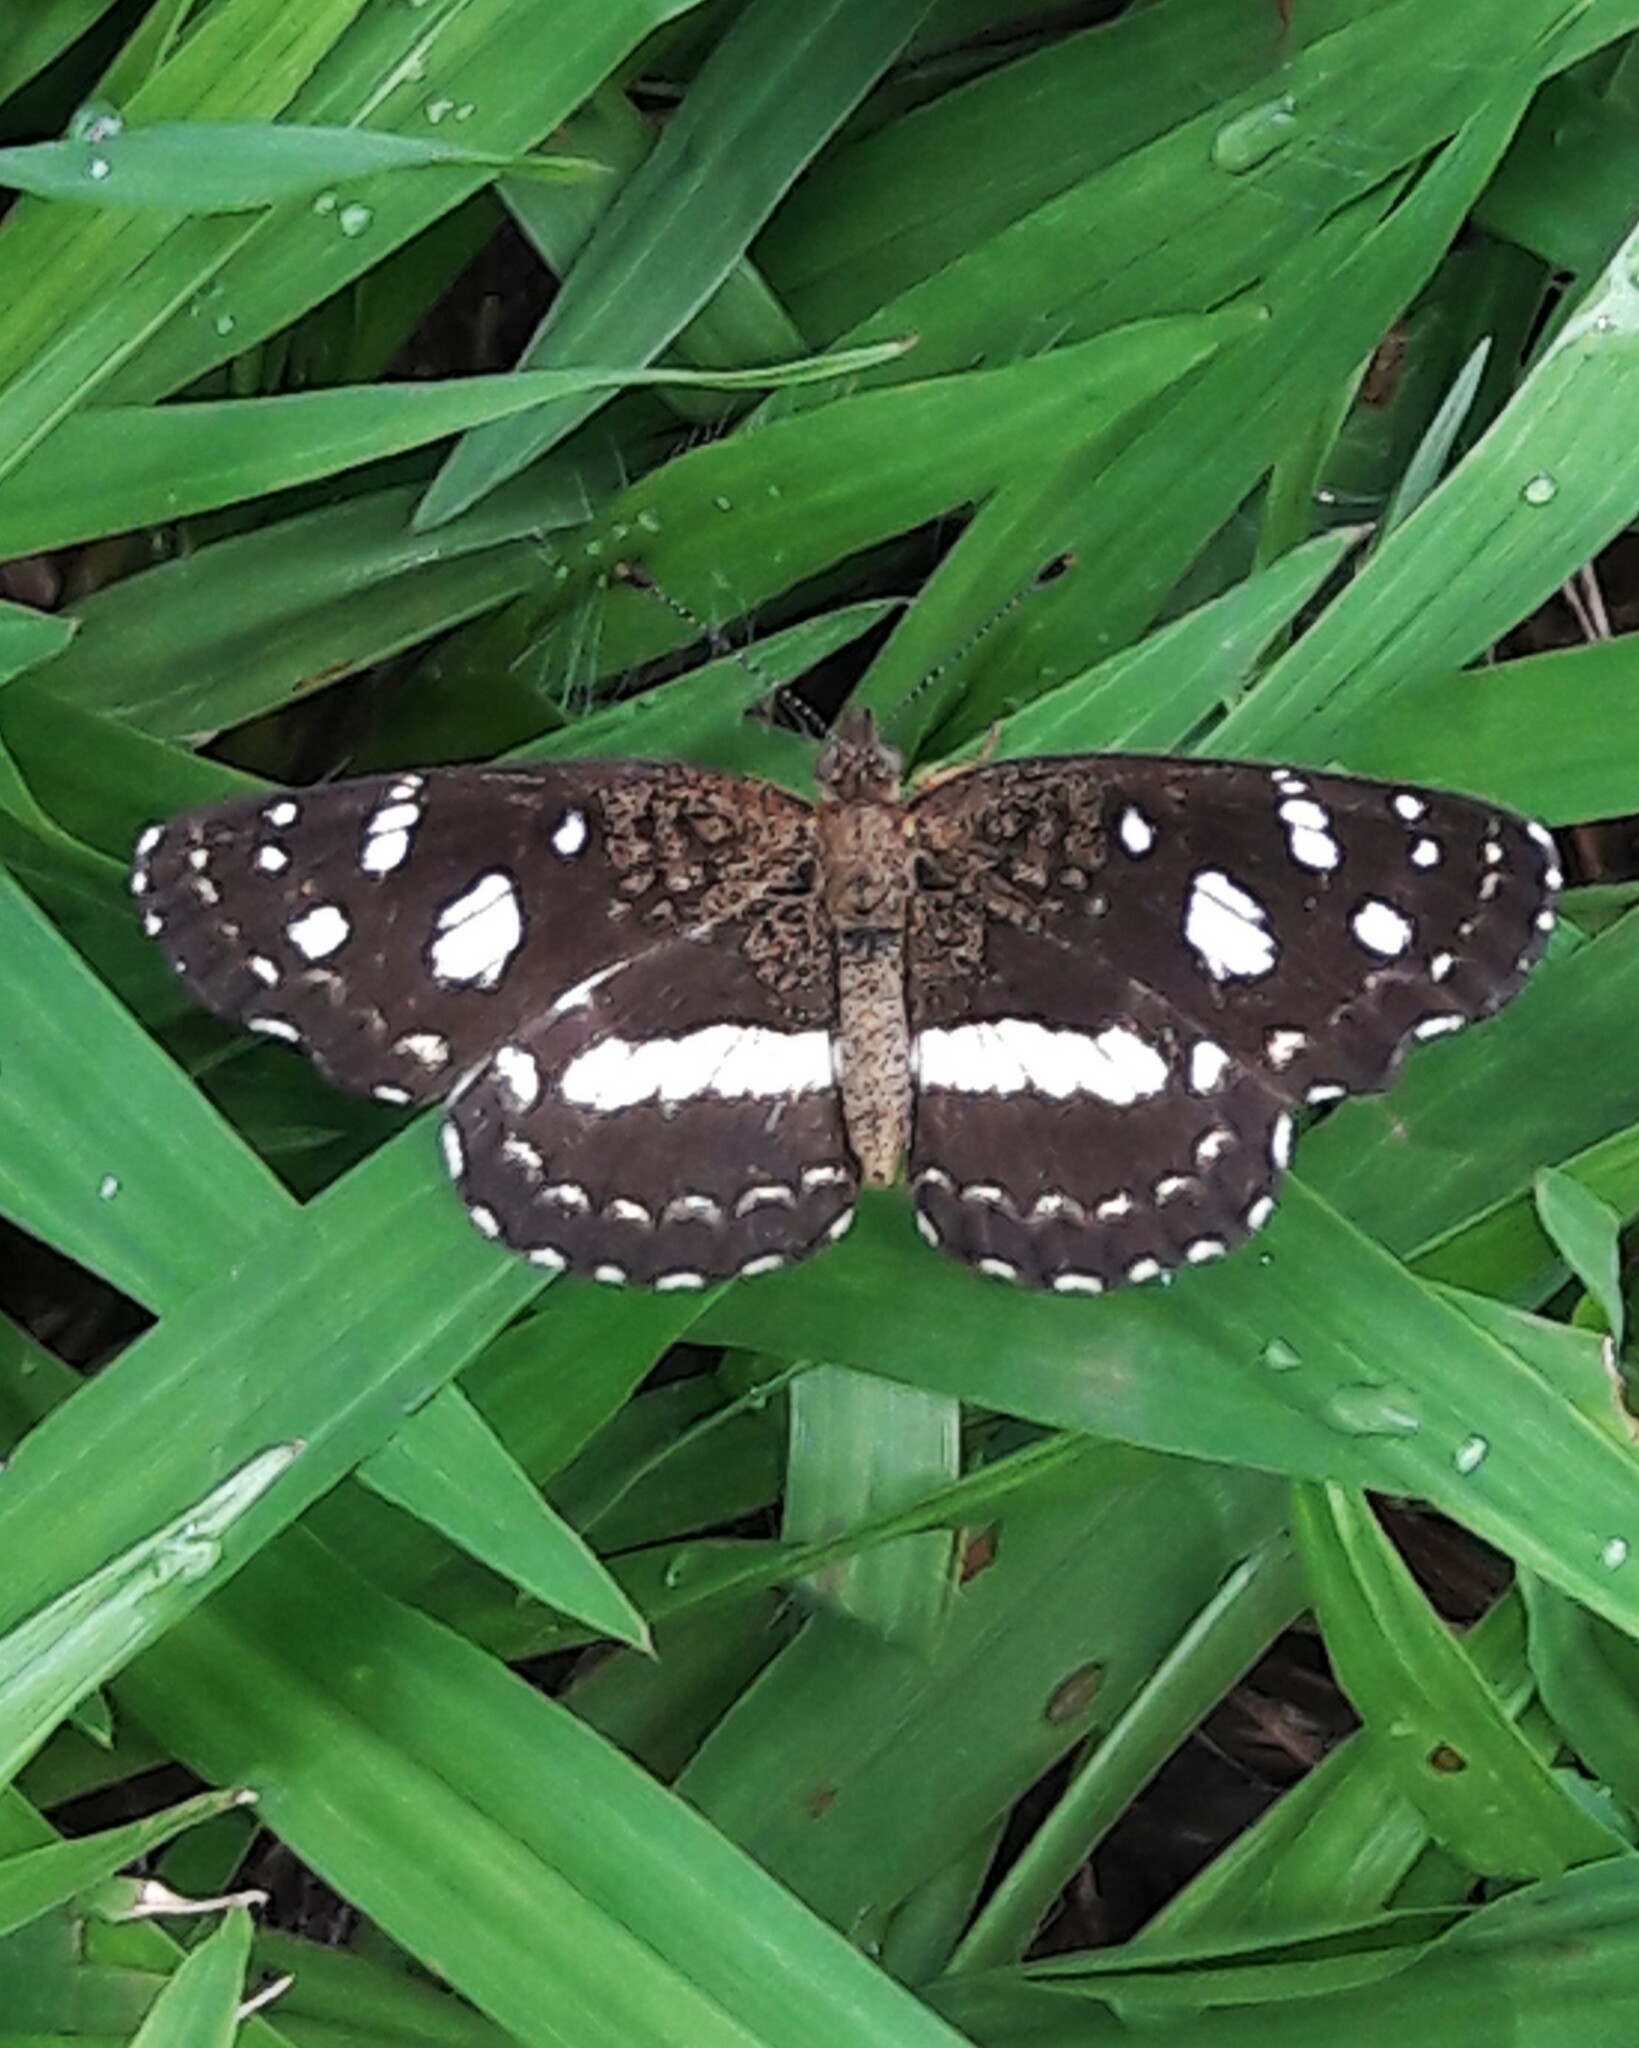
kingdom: Animalia
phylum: Arthropoda
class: Insecta
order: Lepidoptera
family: Nymphalidae
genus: Ortilia
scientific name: Ortilia ithra
